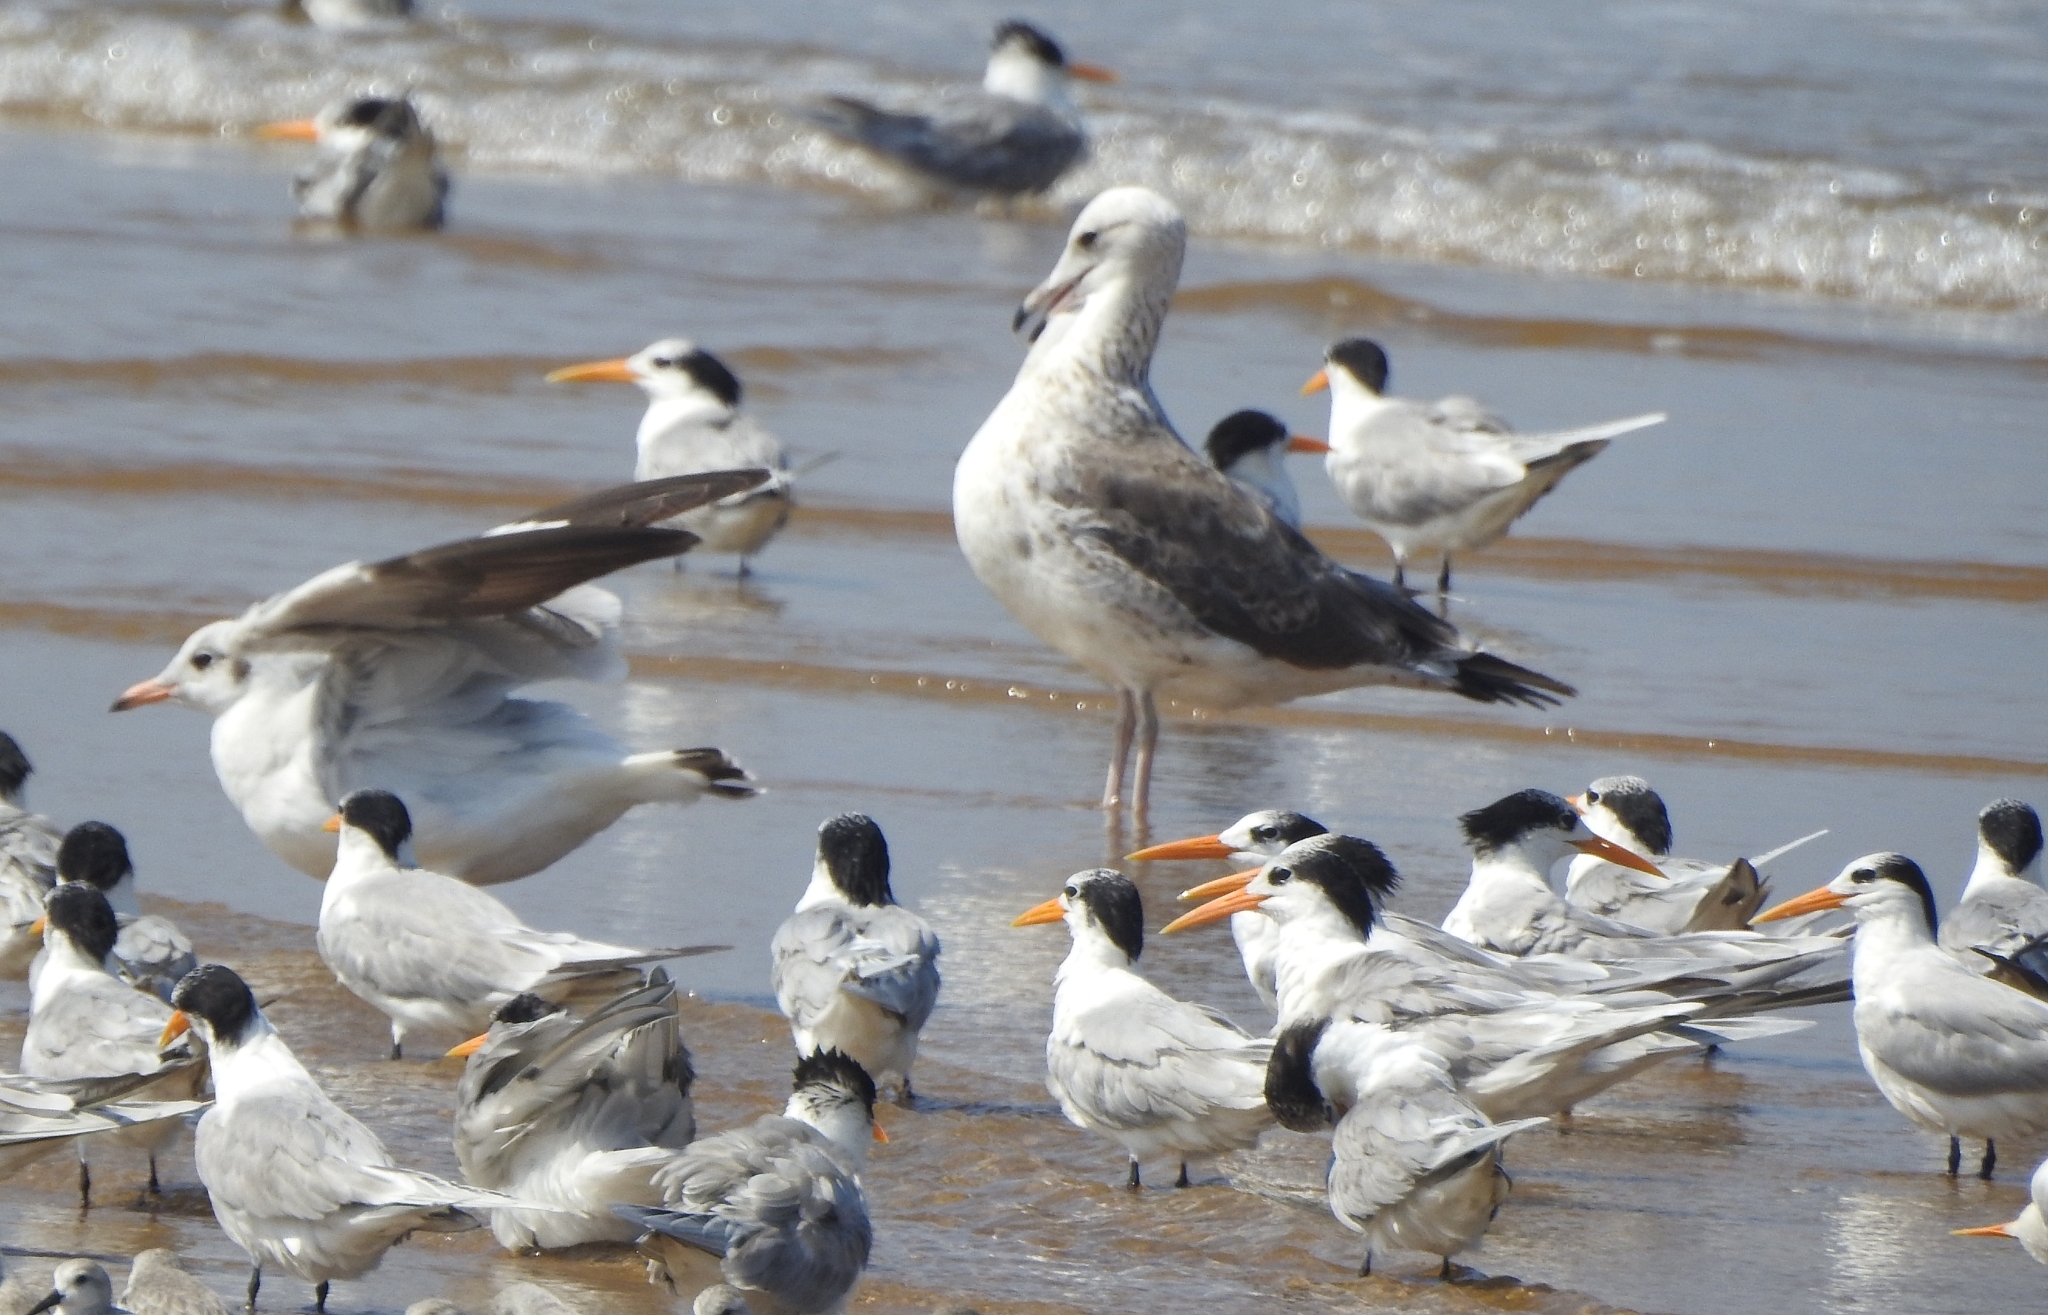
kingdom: Animalia
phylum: Chordata
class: Aves
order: Charadriiformes
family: Laridae
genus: Thalasseus
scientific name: Thalasseus bengalensis
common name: Lesser crested tern
